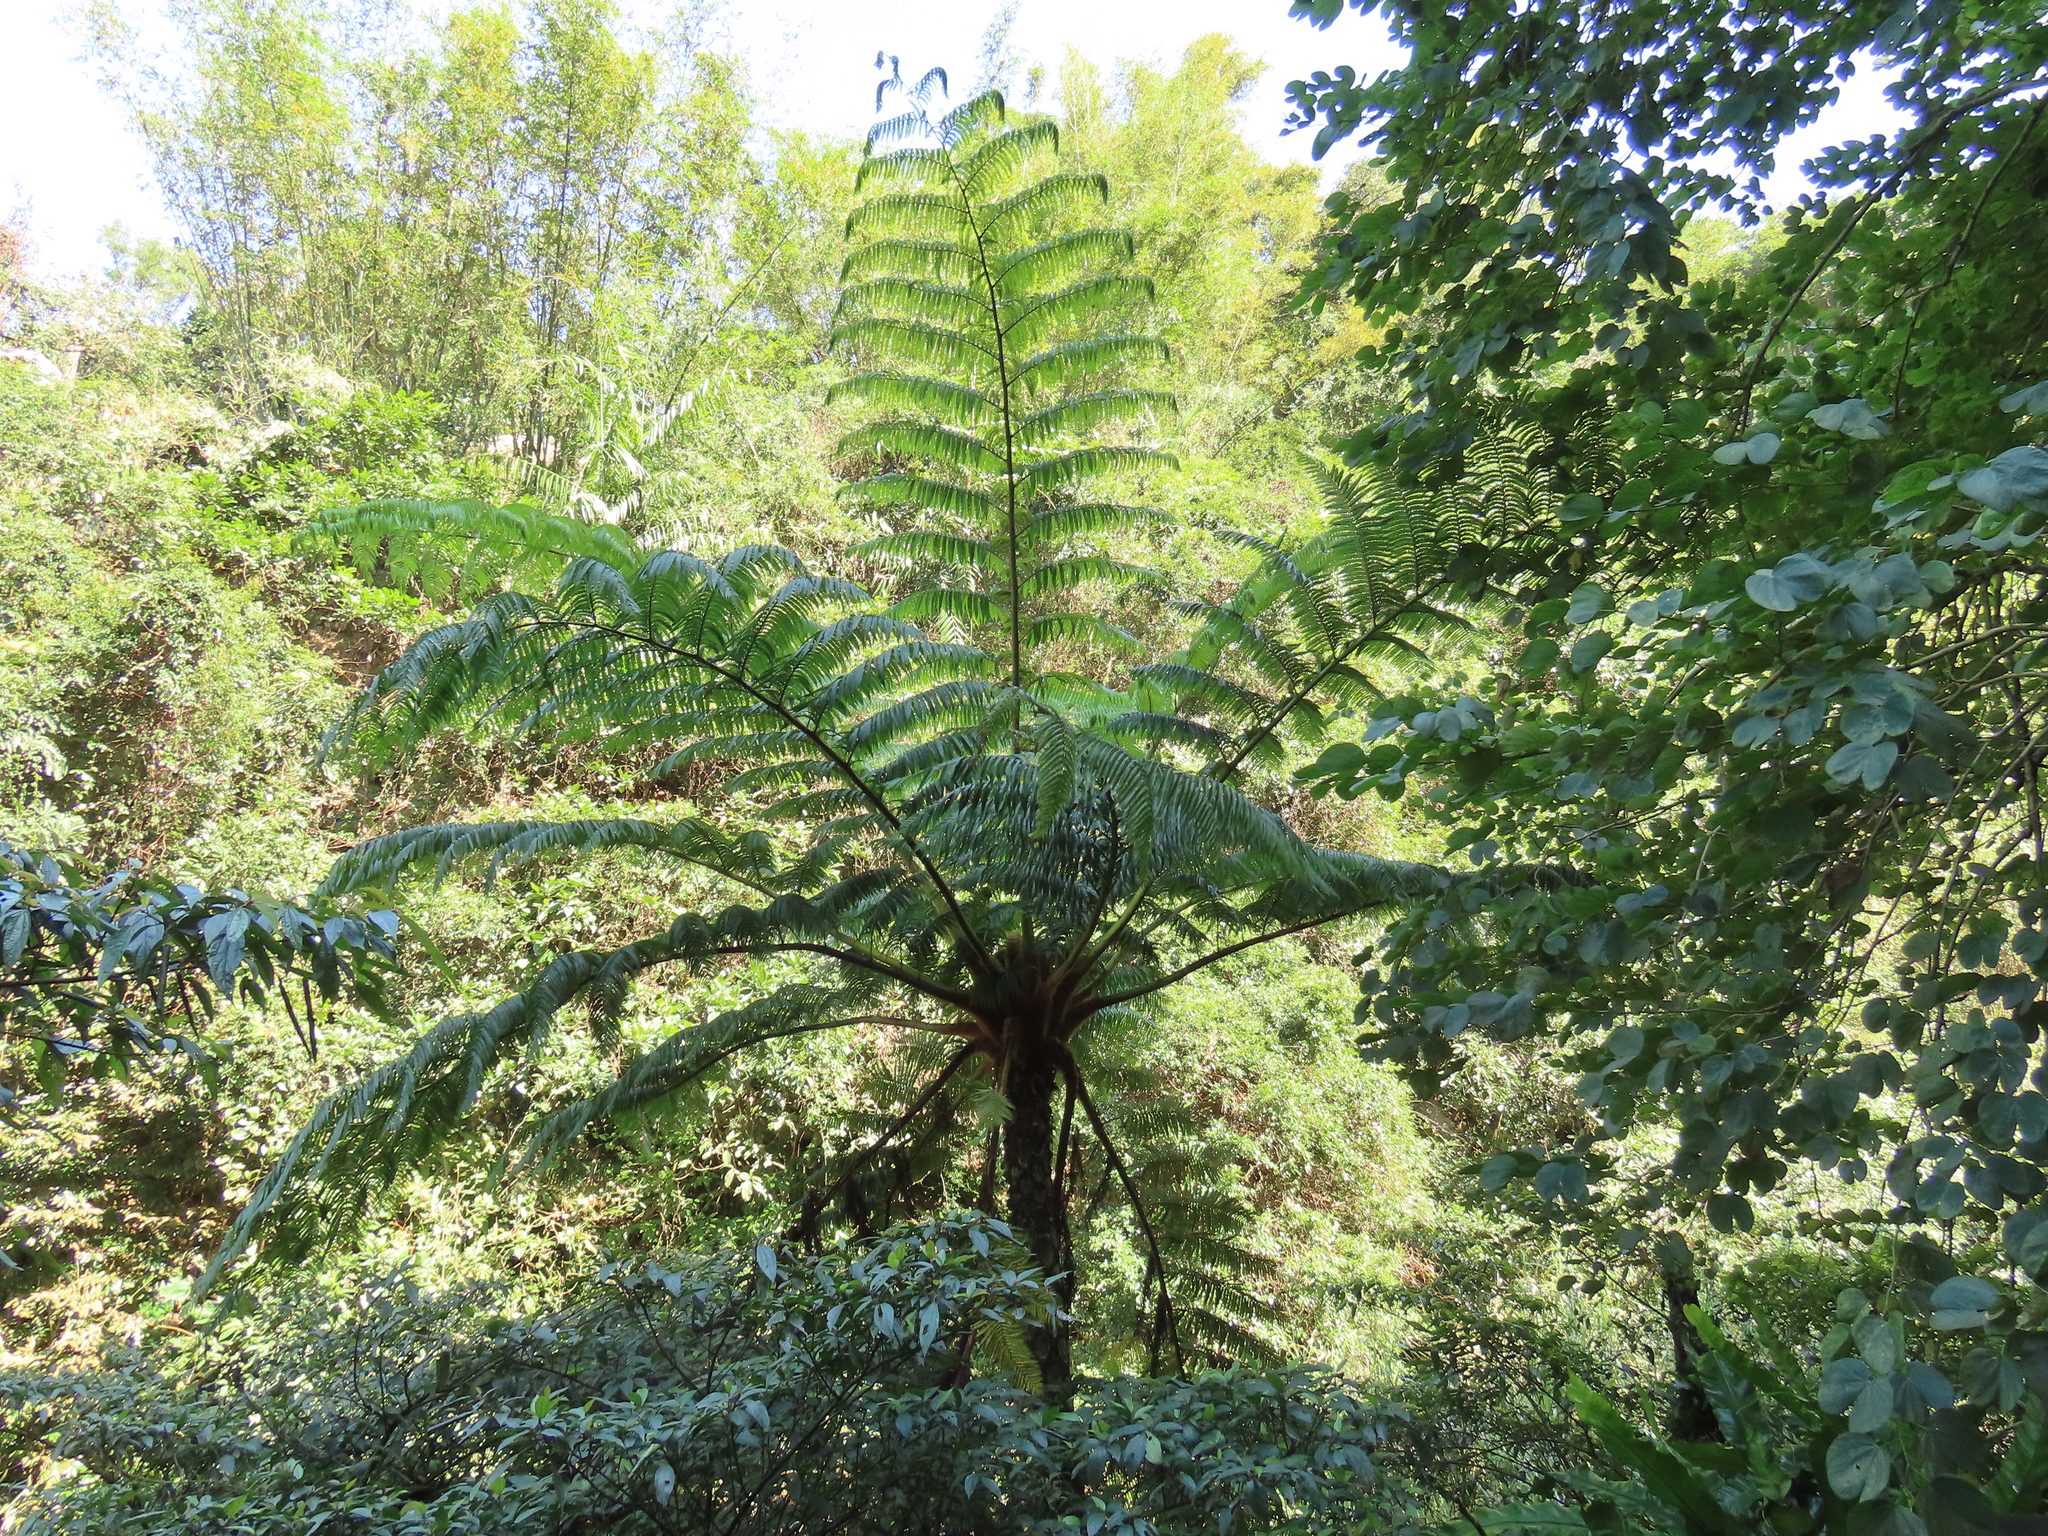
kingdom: Plantae
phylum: Tracheophyta
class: Polypodiopsida
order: Cyatheales
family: Cyatheaceae
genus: Alsophila
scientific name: Alsophila lepifera
